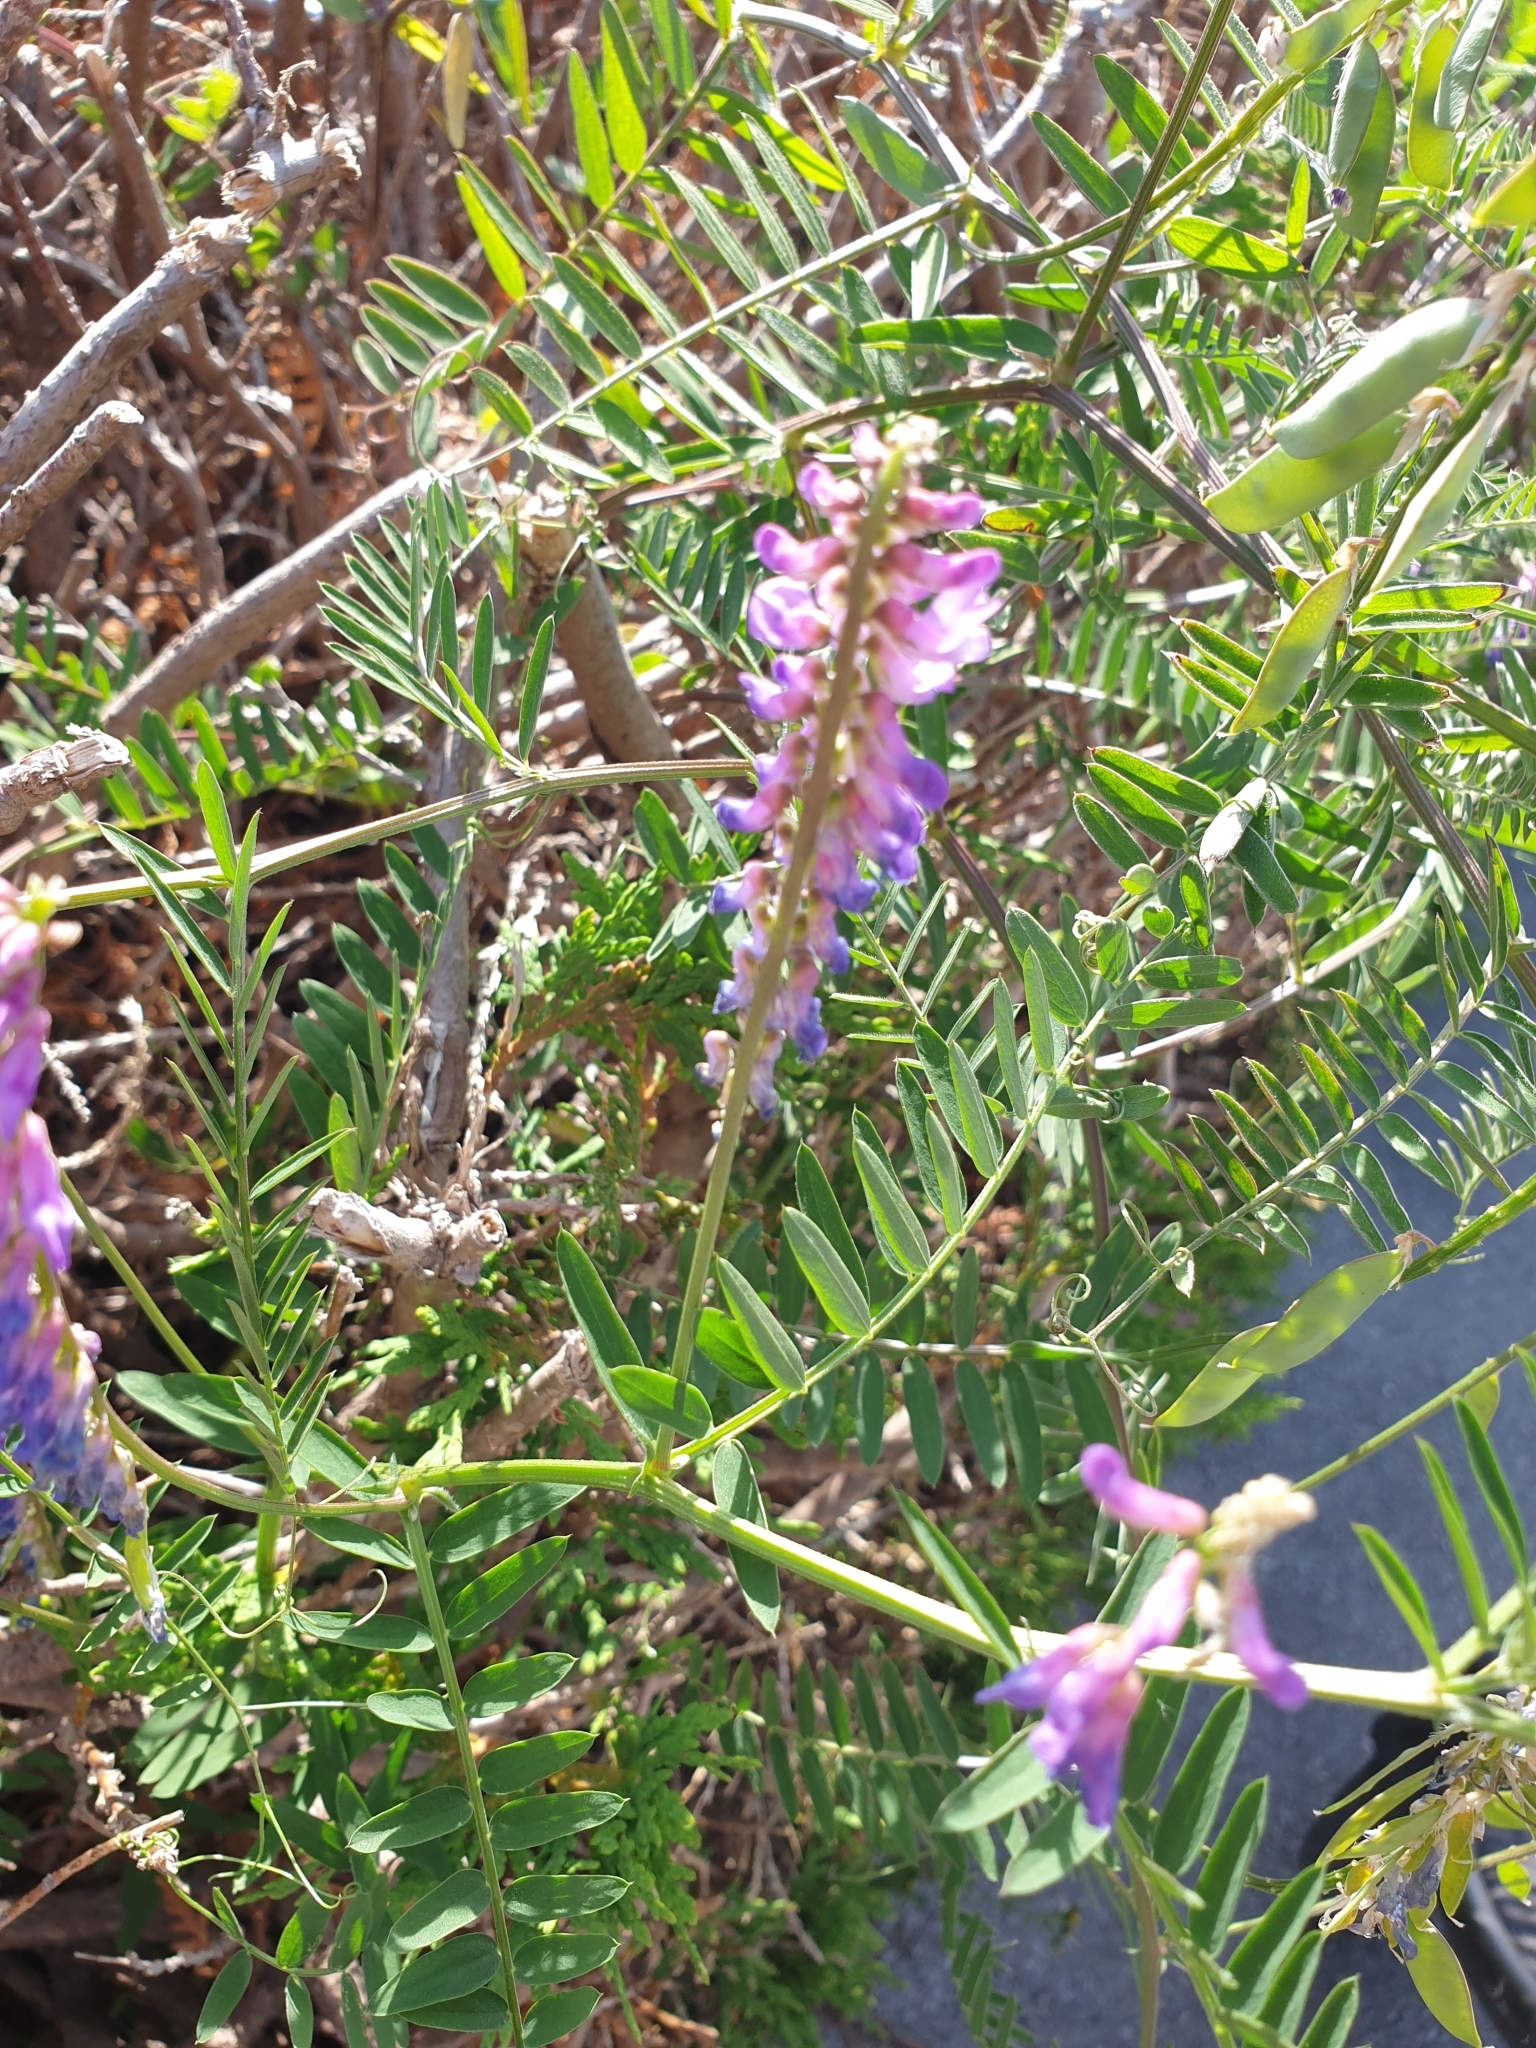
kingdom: Plantae
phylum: Tracheophyta
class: Magnoliopsida
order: Fabales
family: Fabaceae
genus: Vicia
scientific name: Vicia cracca
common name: Bird vetch
